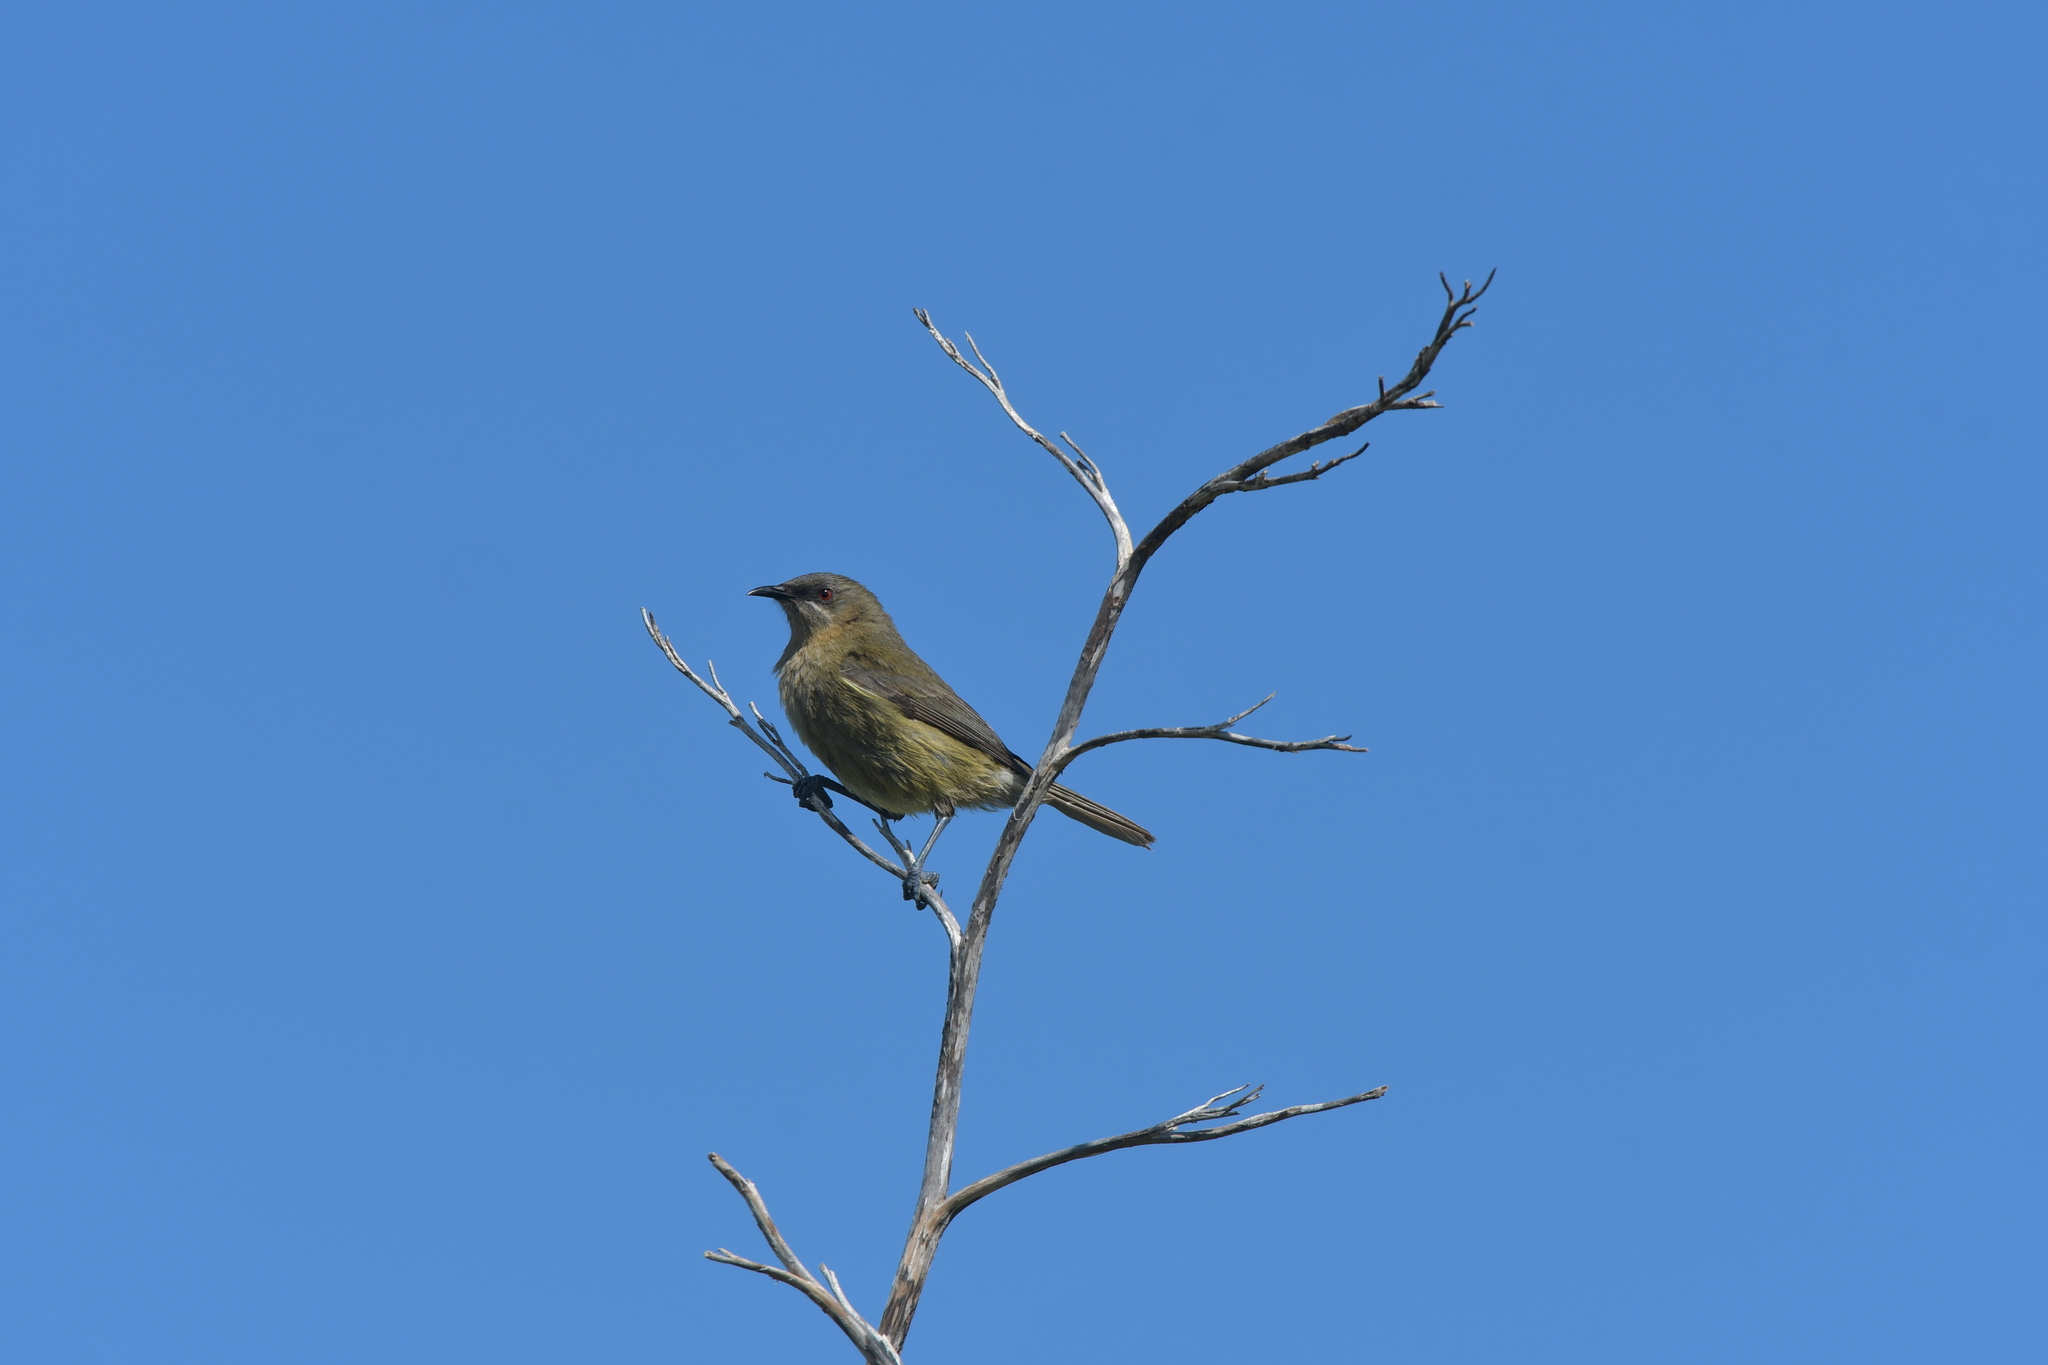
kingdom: Animalia
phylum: Chordata
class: Aves
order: Passeriformes
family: Meliphagidae
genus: Anthornis
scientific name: Anthornis melanura
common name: New zealand bellbird
